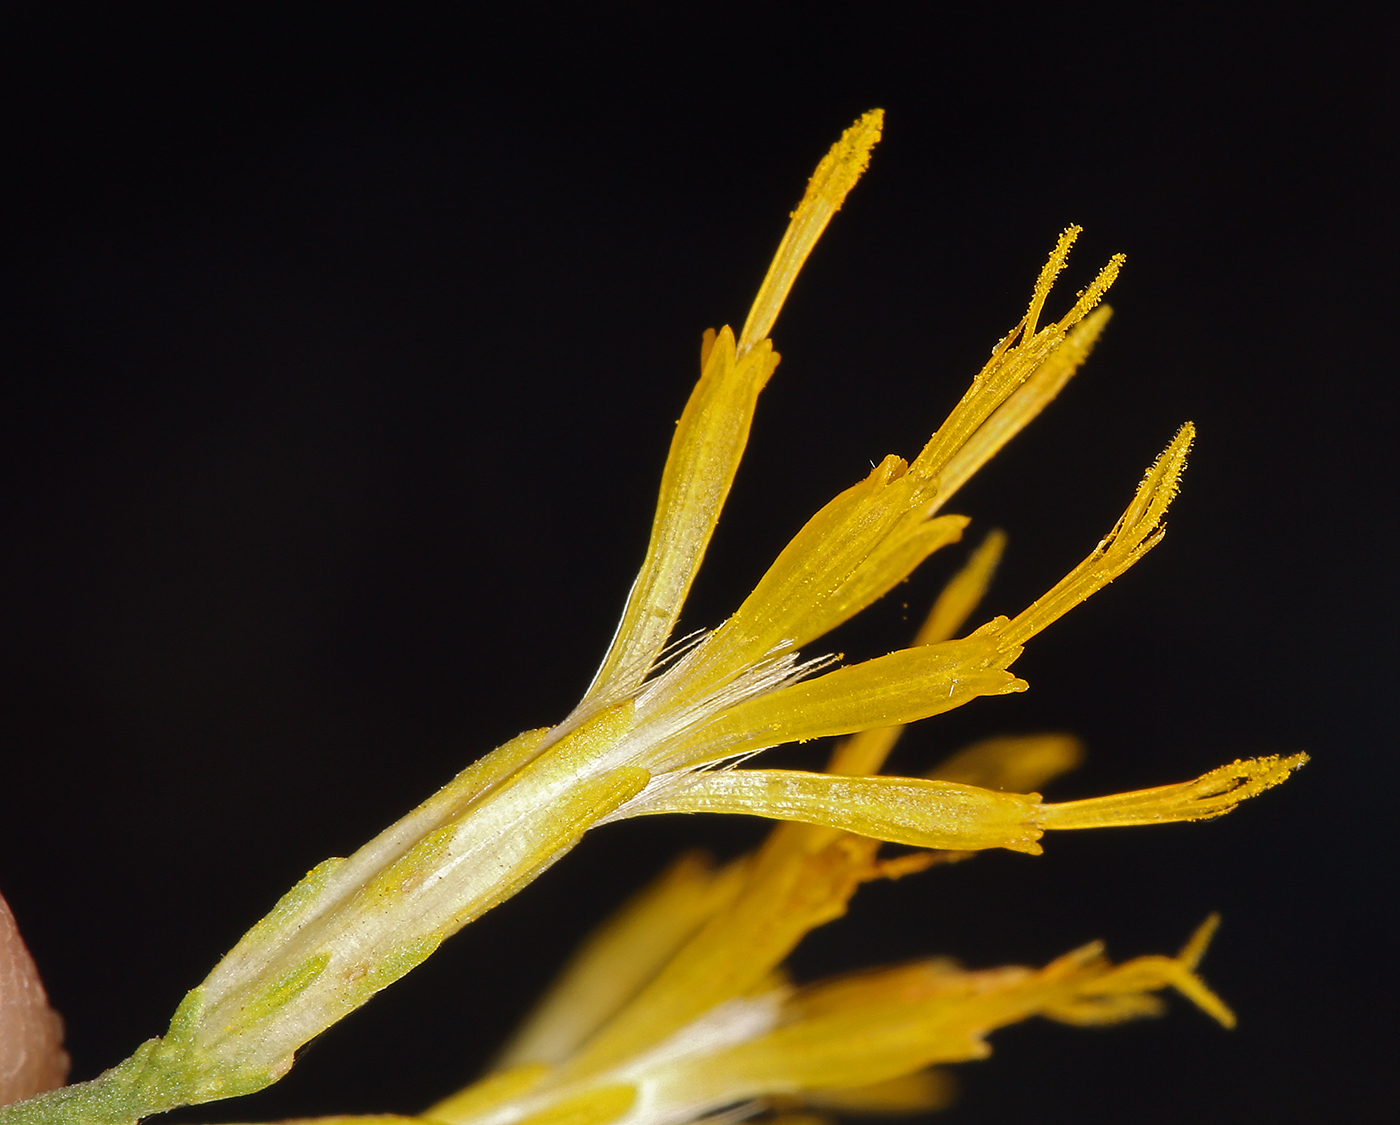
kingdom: Plantae
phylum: Tracheophyta
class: Magnoliopsida
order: Asterales
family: Asteraceae
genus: Ericameria
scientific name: Ericameria nauseosa
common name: Rubber rabbitbrush
